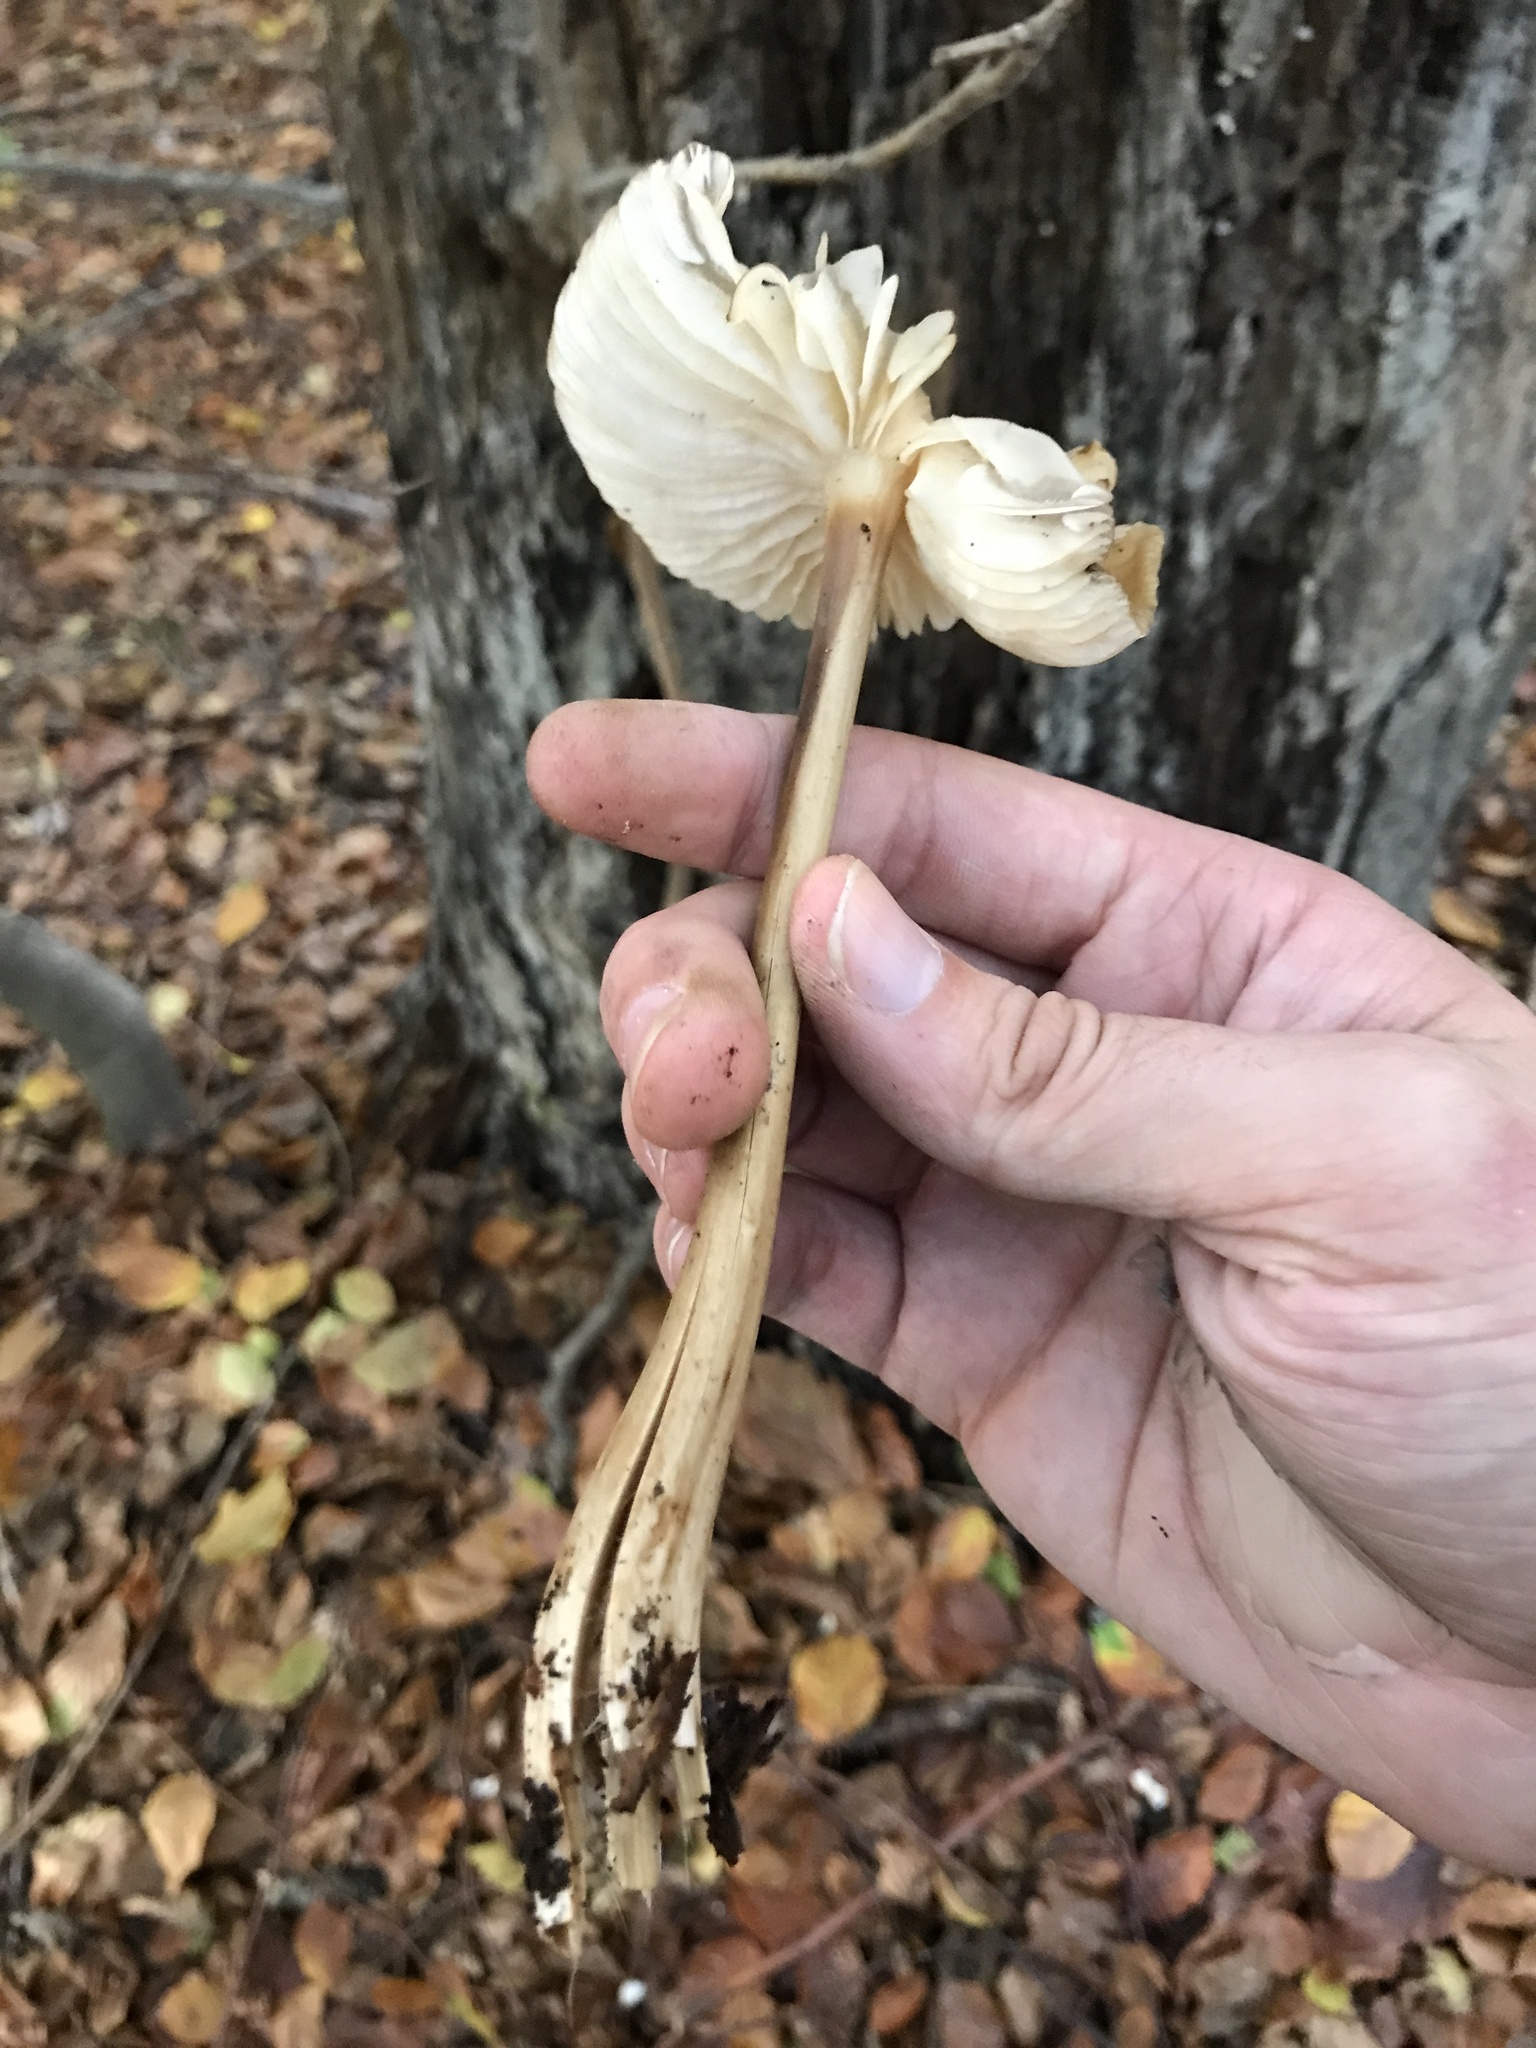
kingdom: Fungi
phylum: Basidiomycota
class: Agaricomycetes
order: Agaricales
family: Physalacriaceae
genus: Hymenopellis
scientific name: Hymenopellis radicata
